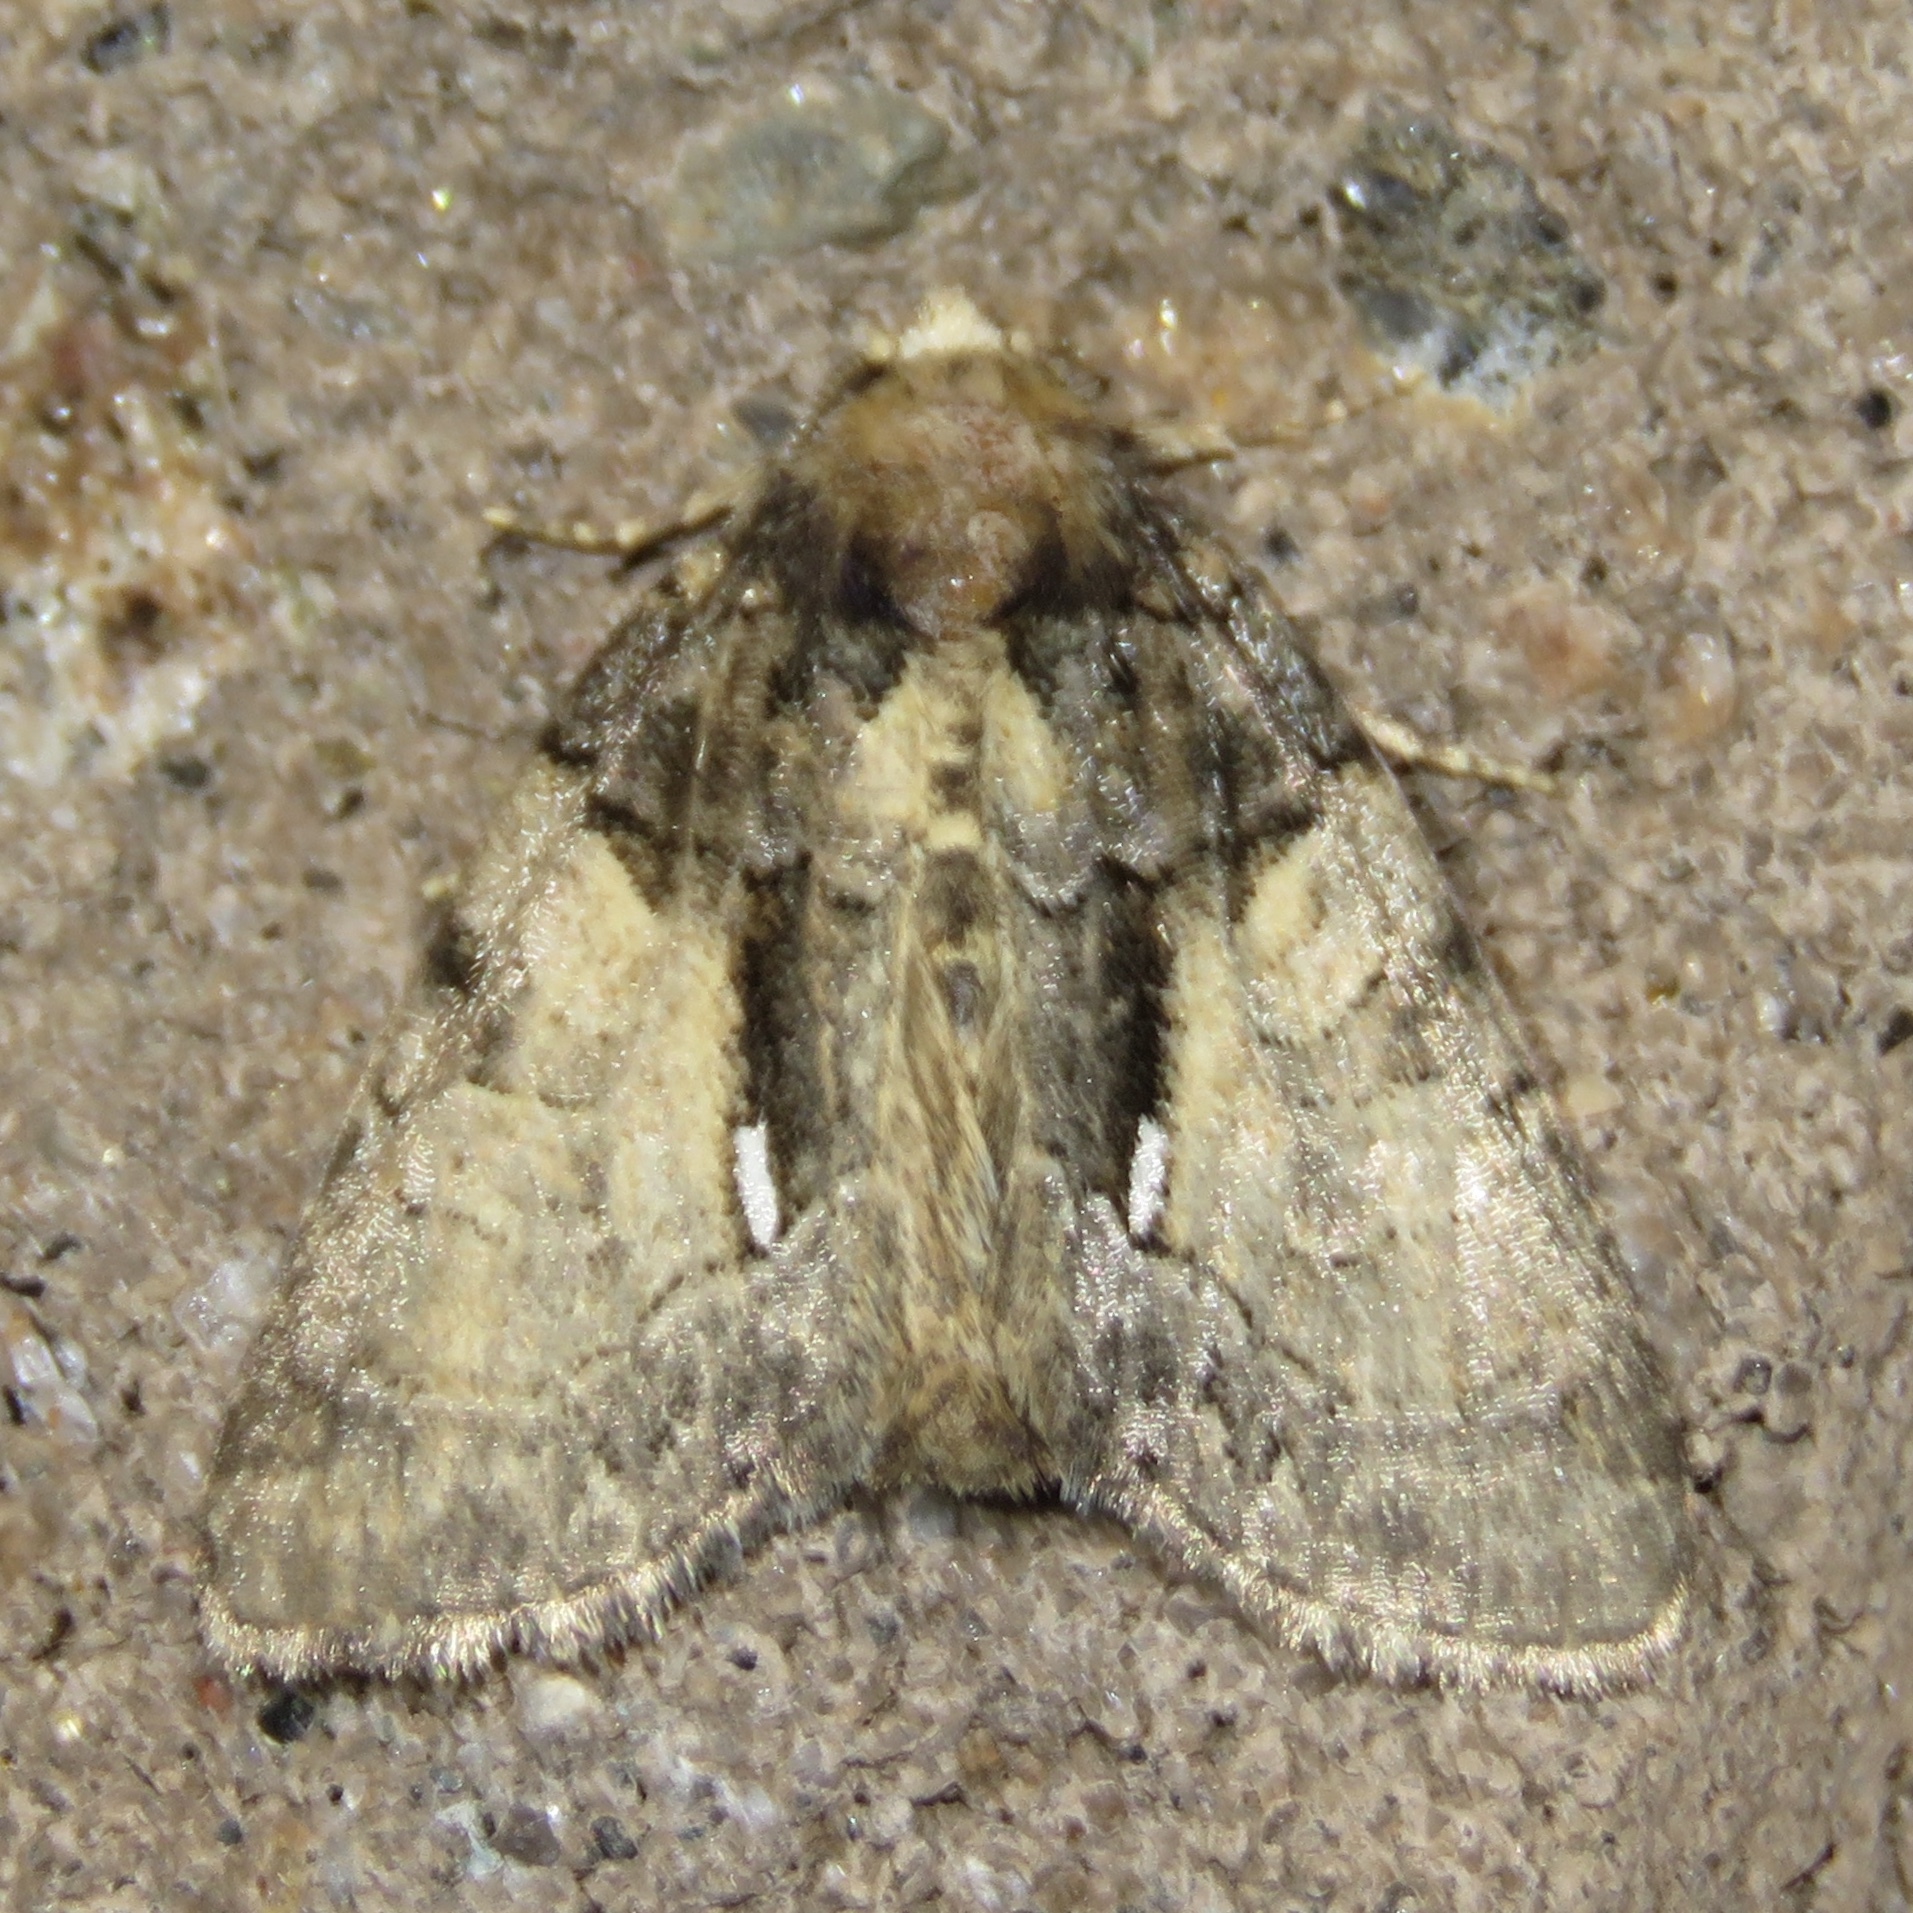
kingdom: Animalia
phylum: Arthropoda
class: Insecta
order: Lepidoptera
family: Noctuidae
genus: Chytonix
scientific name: Chytonix palliatricula
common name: Cloaked marvel
